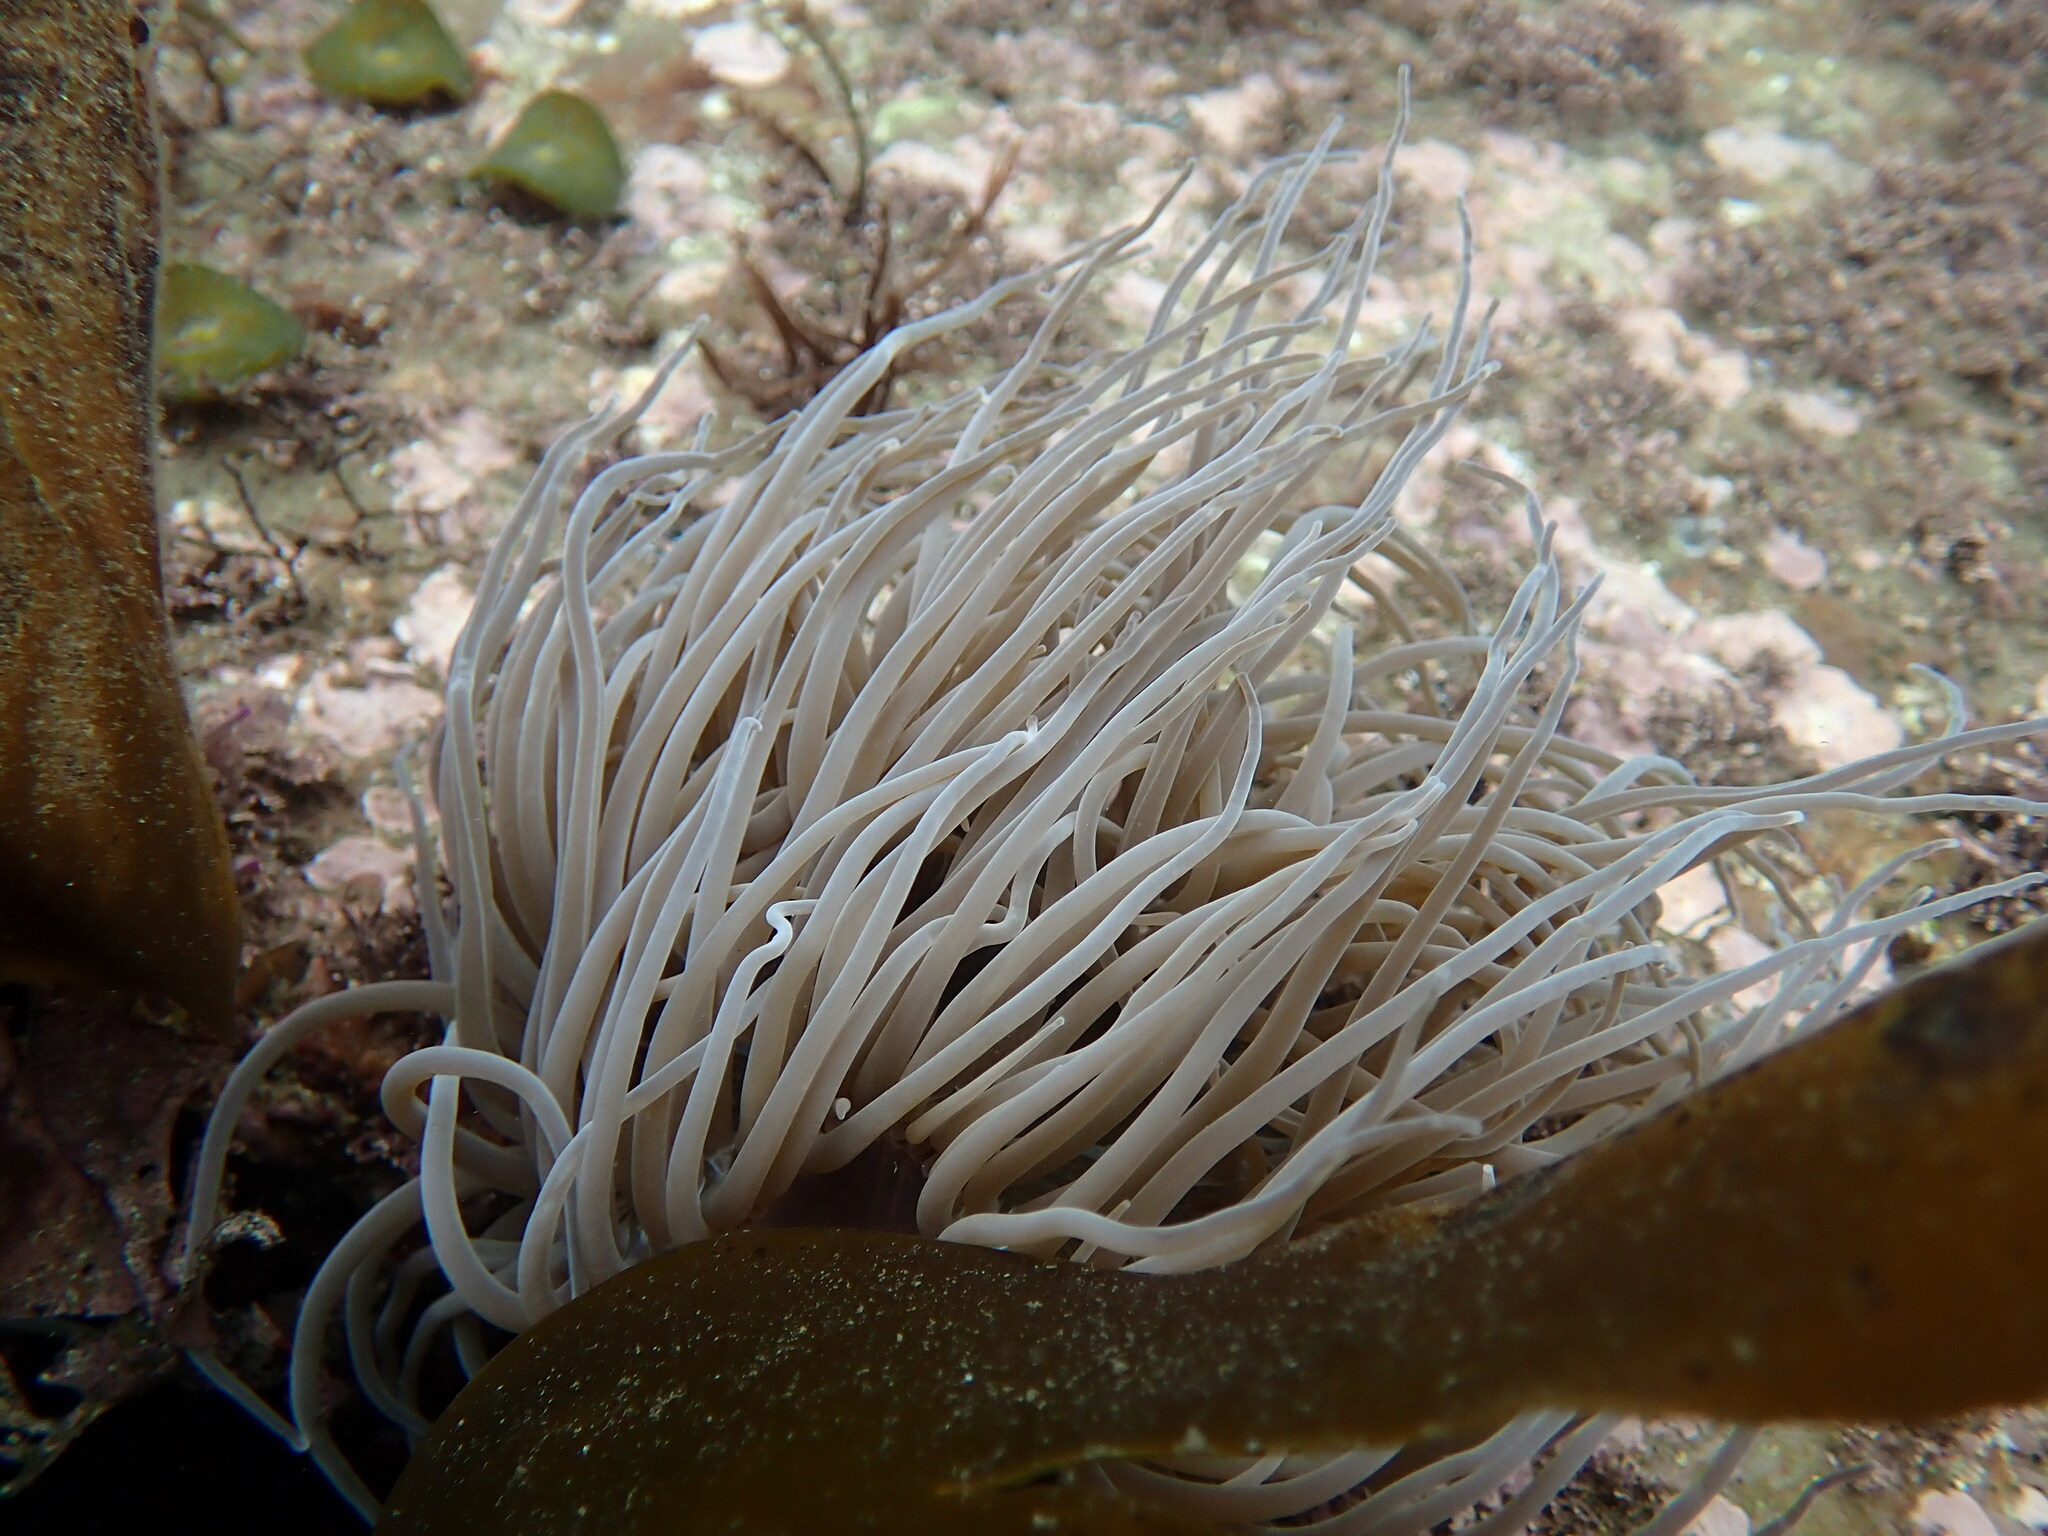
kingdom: Animalia
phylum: Cnidaria
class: Anthozoa
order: Actiniaria
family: Actiniidae
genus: Anemonia
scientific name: Anemonia viridis
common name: Snakelocks anemone
